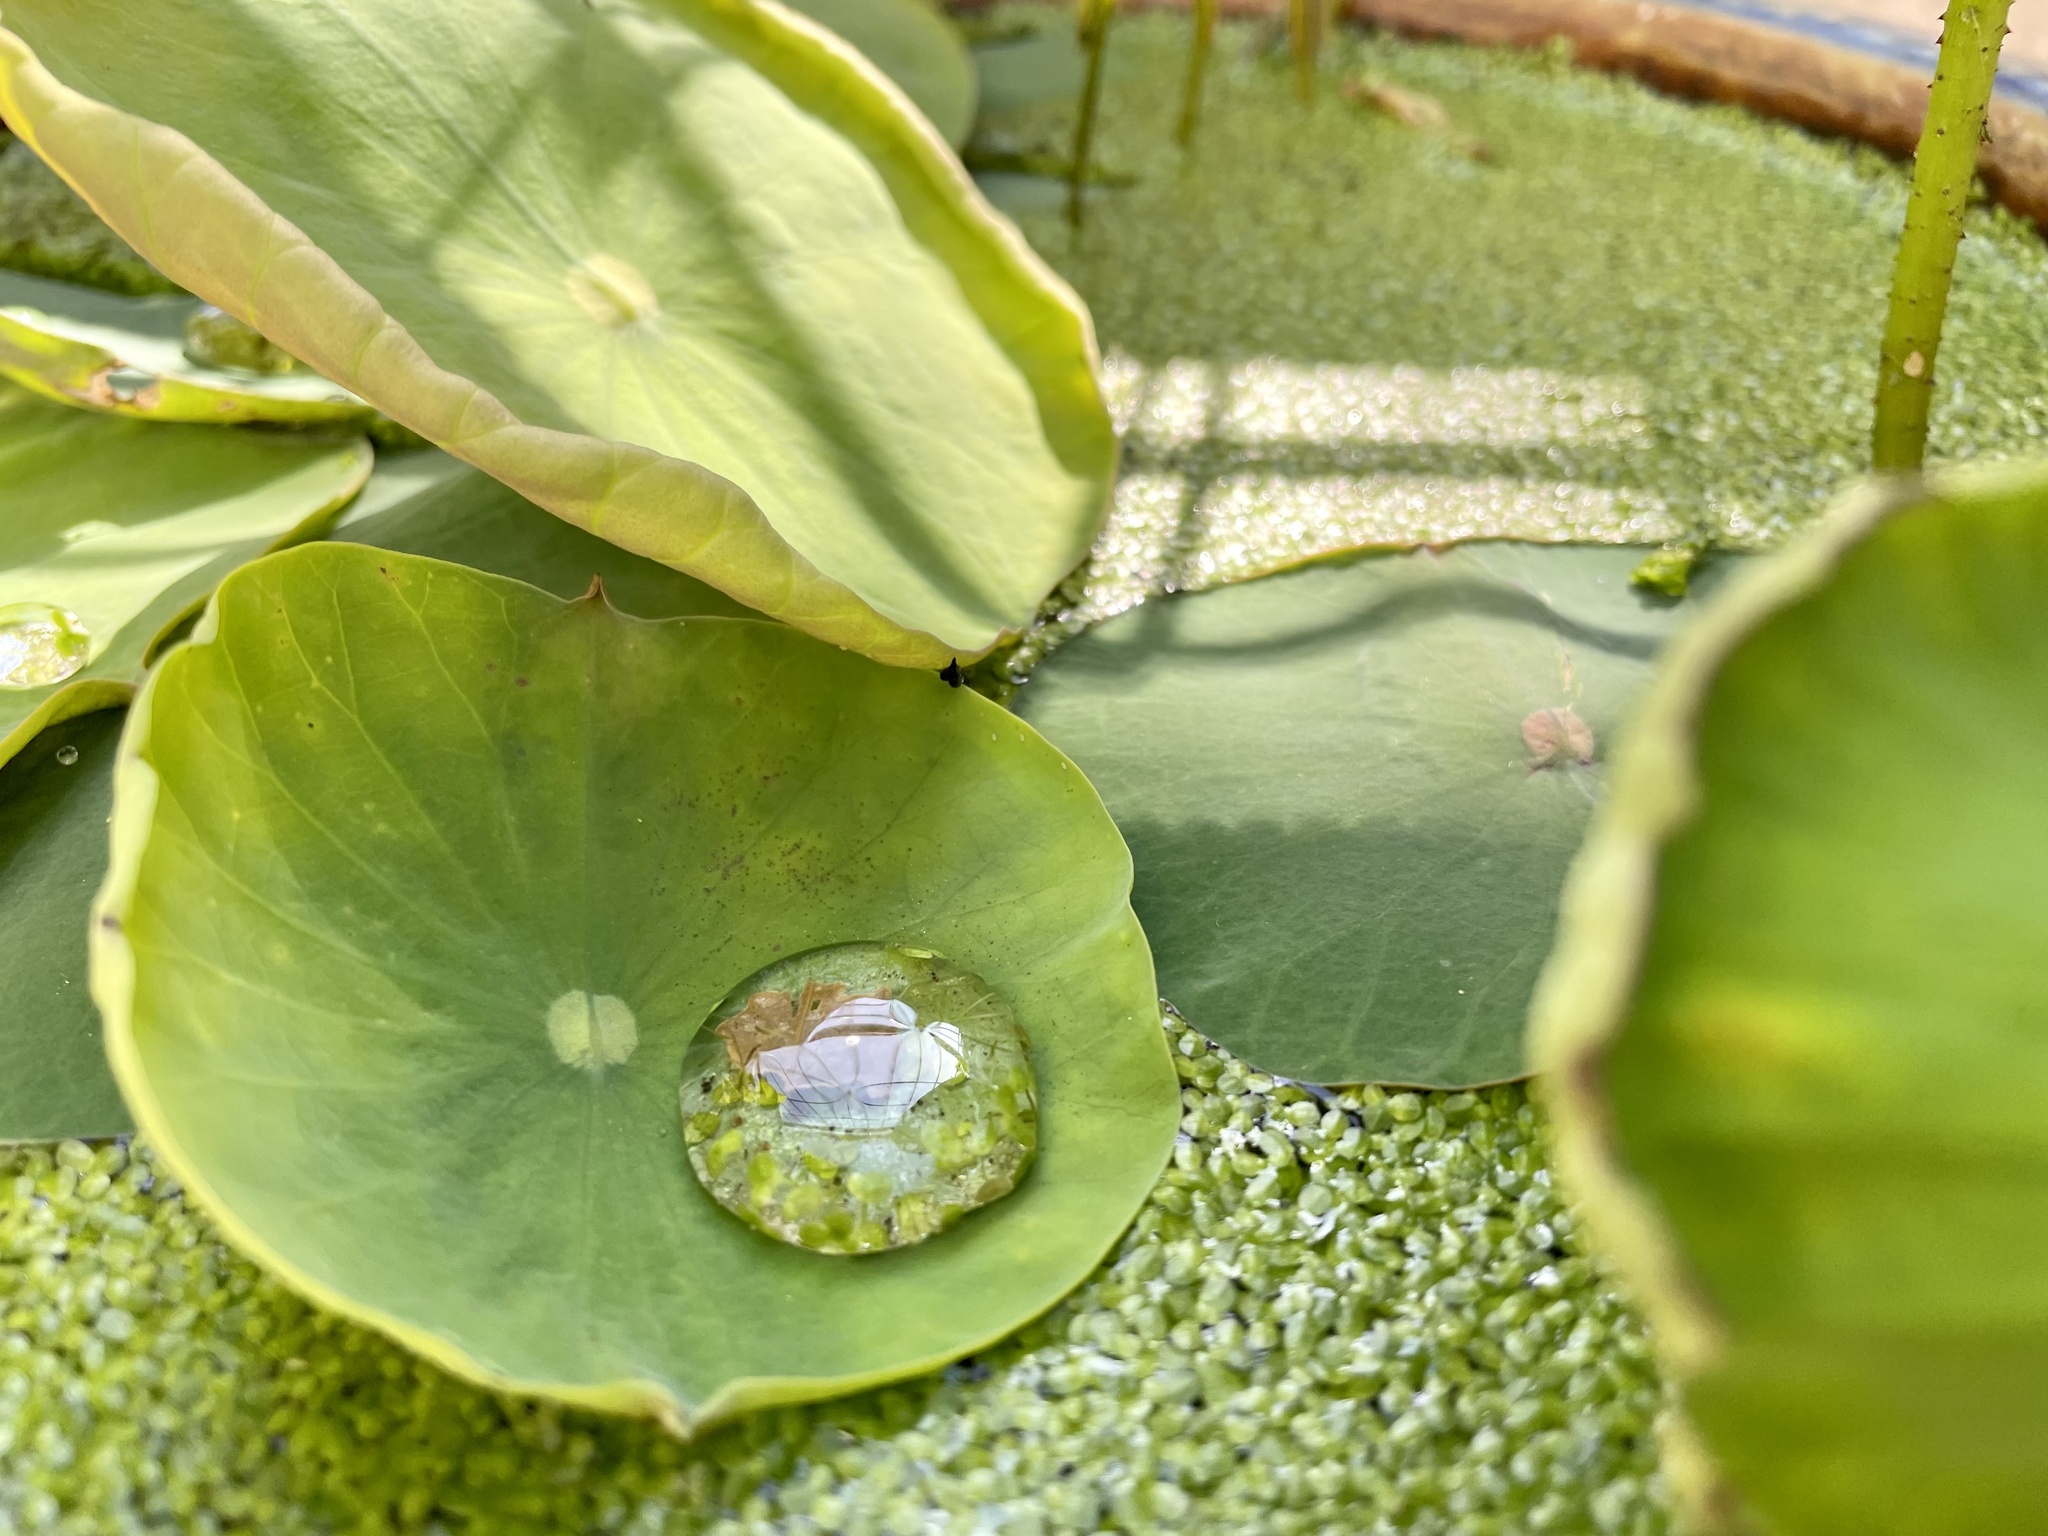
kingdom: Plantae
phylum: Tracheophyta
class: Magnoliopsida
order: Proteales
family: Nelumbonaceae
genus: Nelumbo
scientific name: Nelumbo nucifera
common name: Sacred lotus
